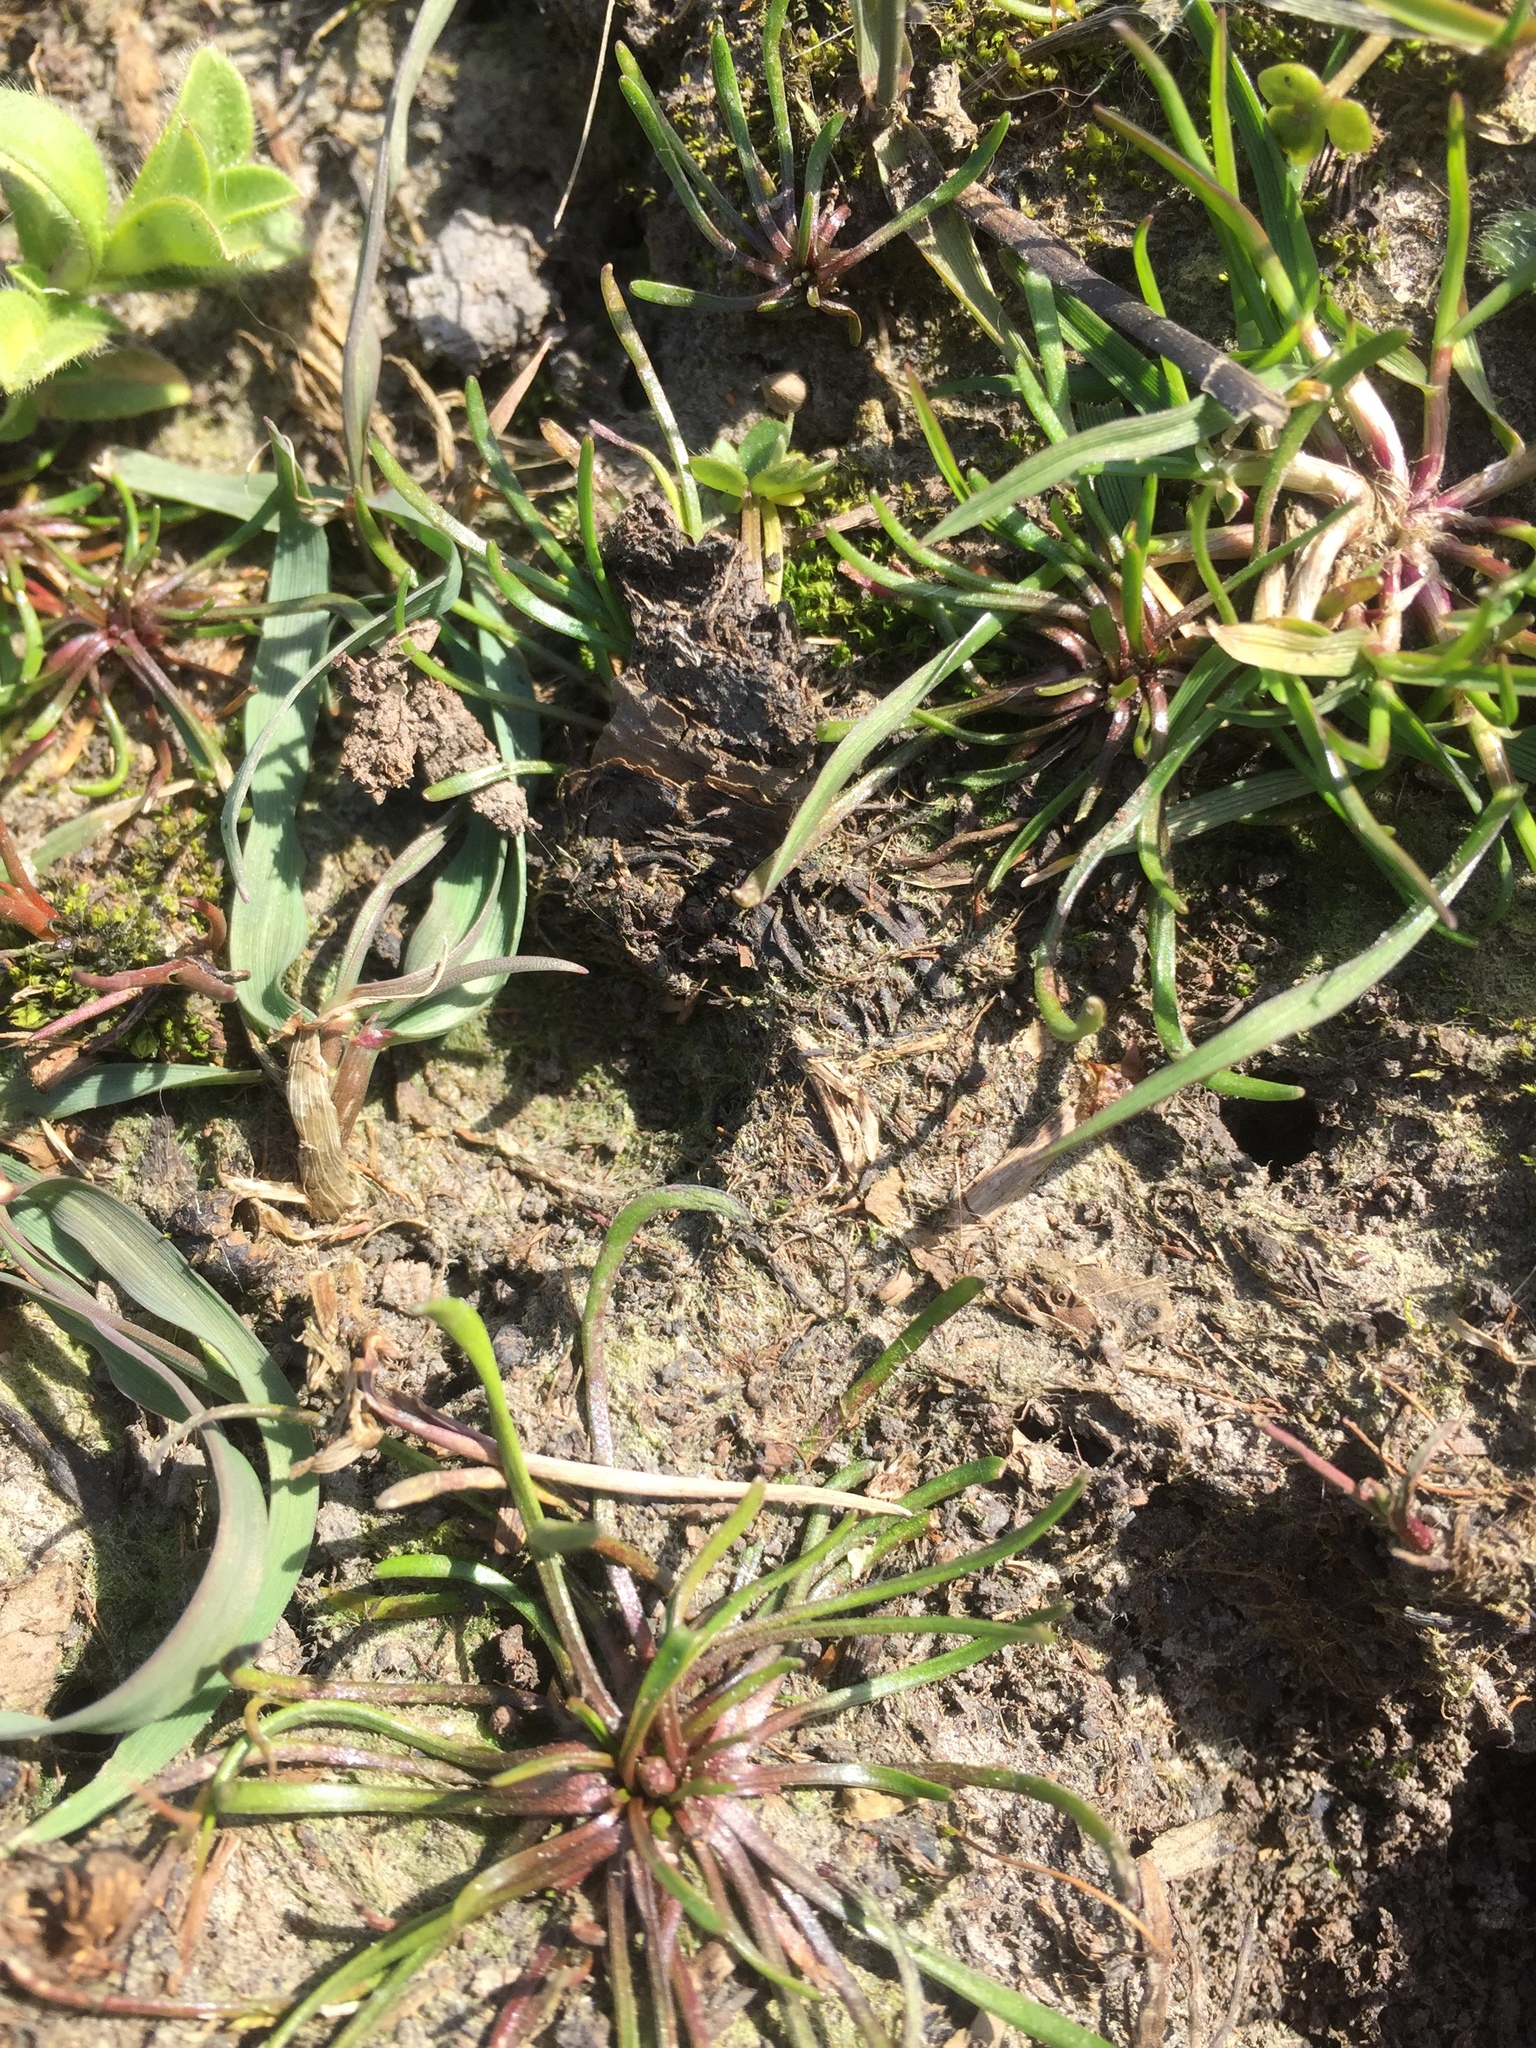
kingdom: Plantae
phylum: Tracheophyta
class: Magnoliopsida
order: Ranunculales
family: Ranunculaceae
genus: Myosurus
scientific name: Myosurus minimus
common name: Mousetail
